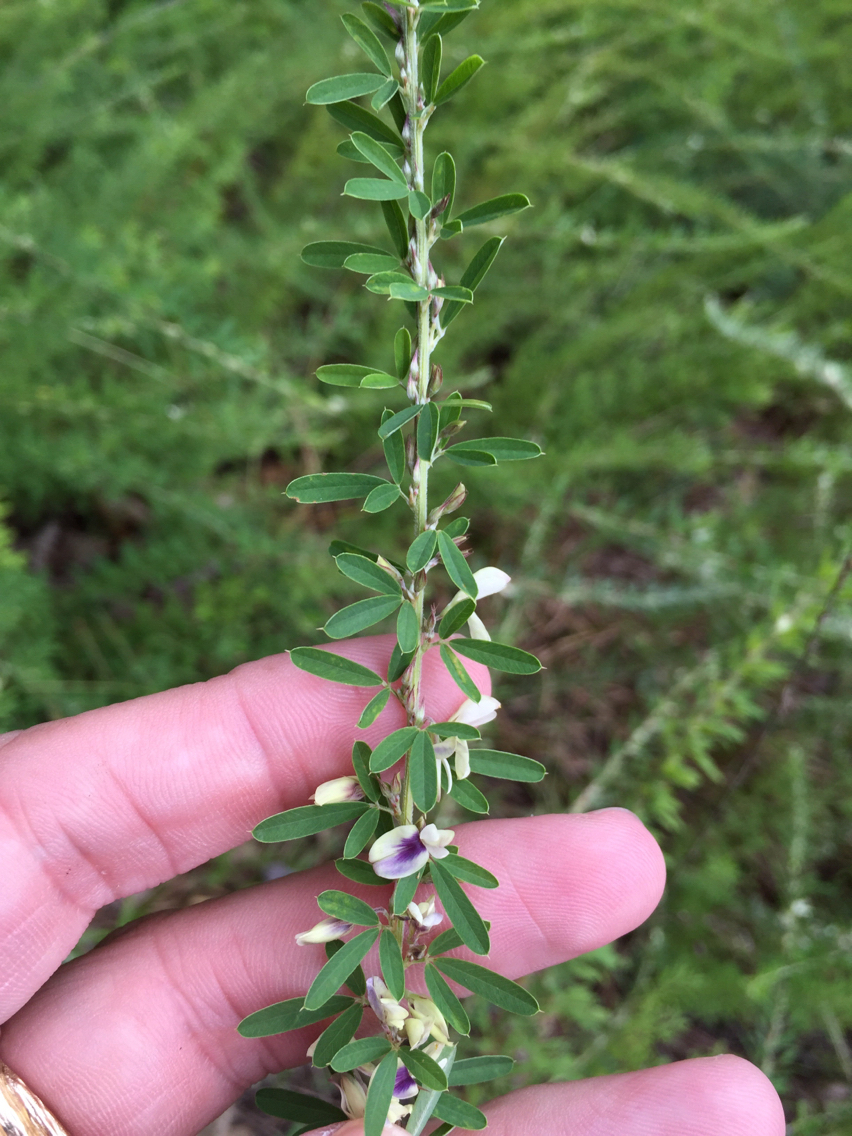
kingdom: Plantae
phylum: Tracheophyta
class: Magnoliopsida
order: Fabales
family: Fabaceae
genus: Lespedeza
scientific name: Lespedeza cuneata
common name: Chinese bush-clover
